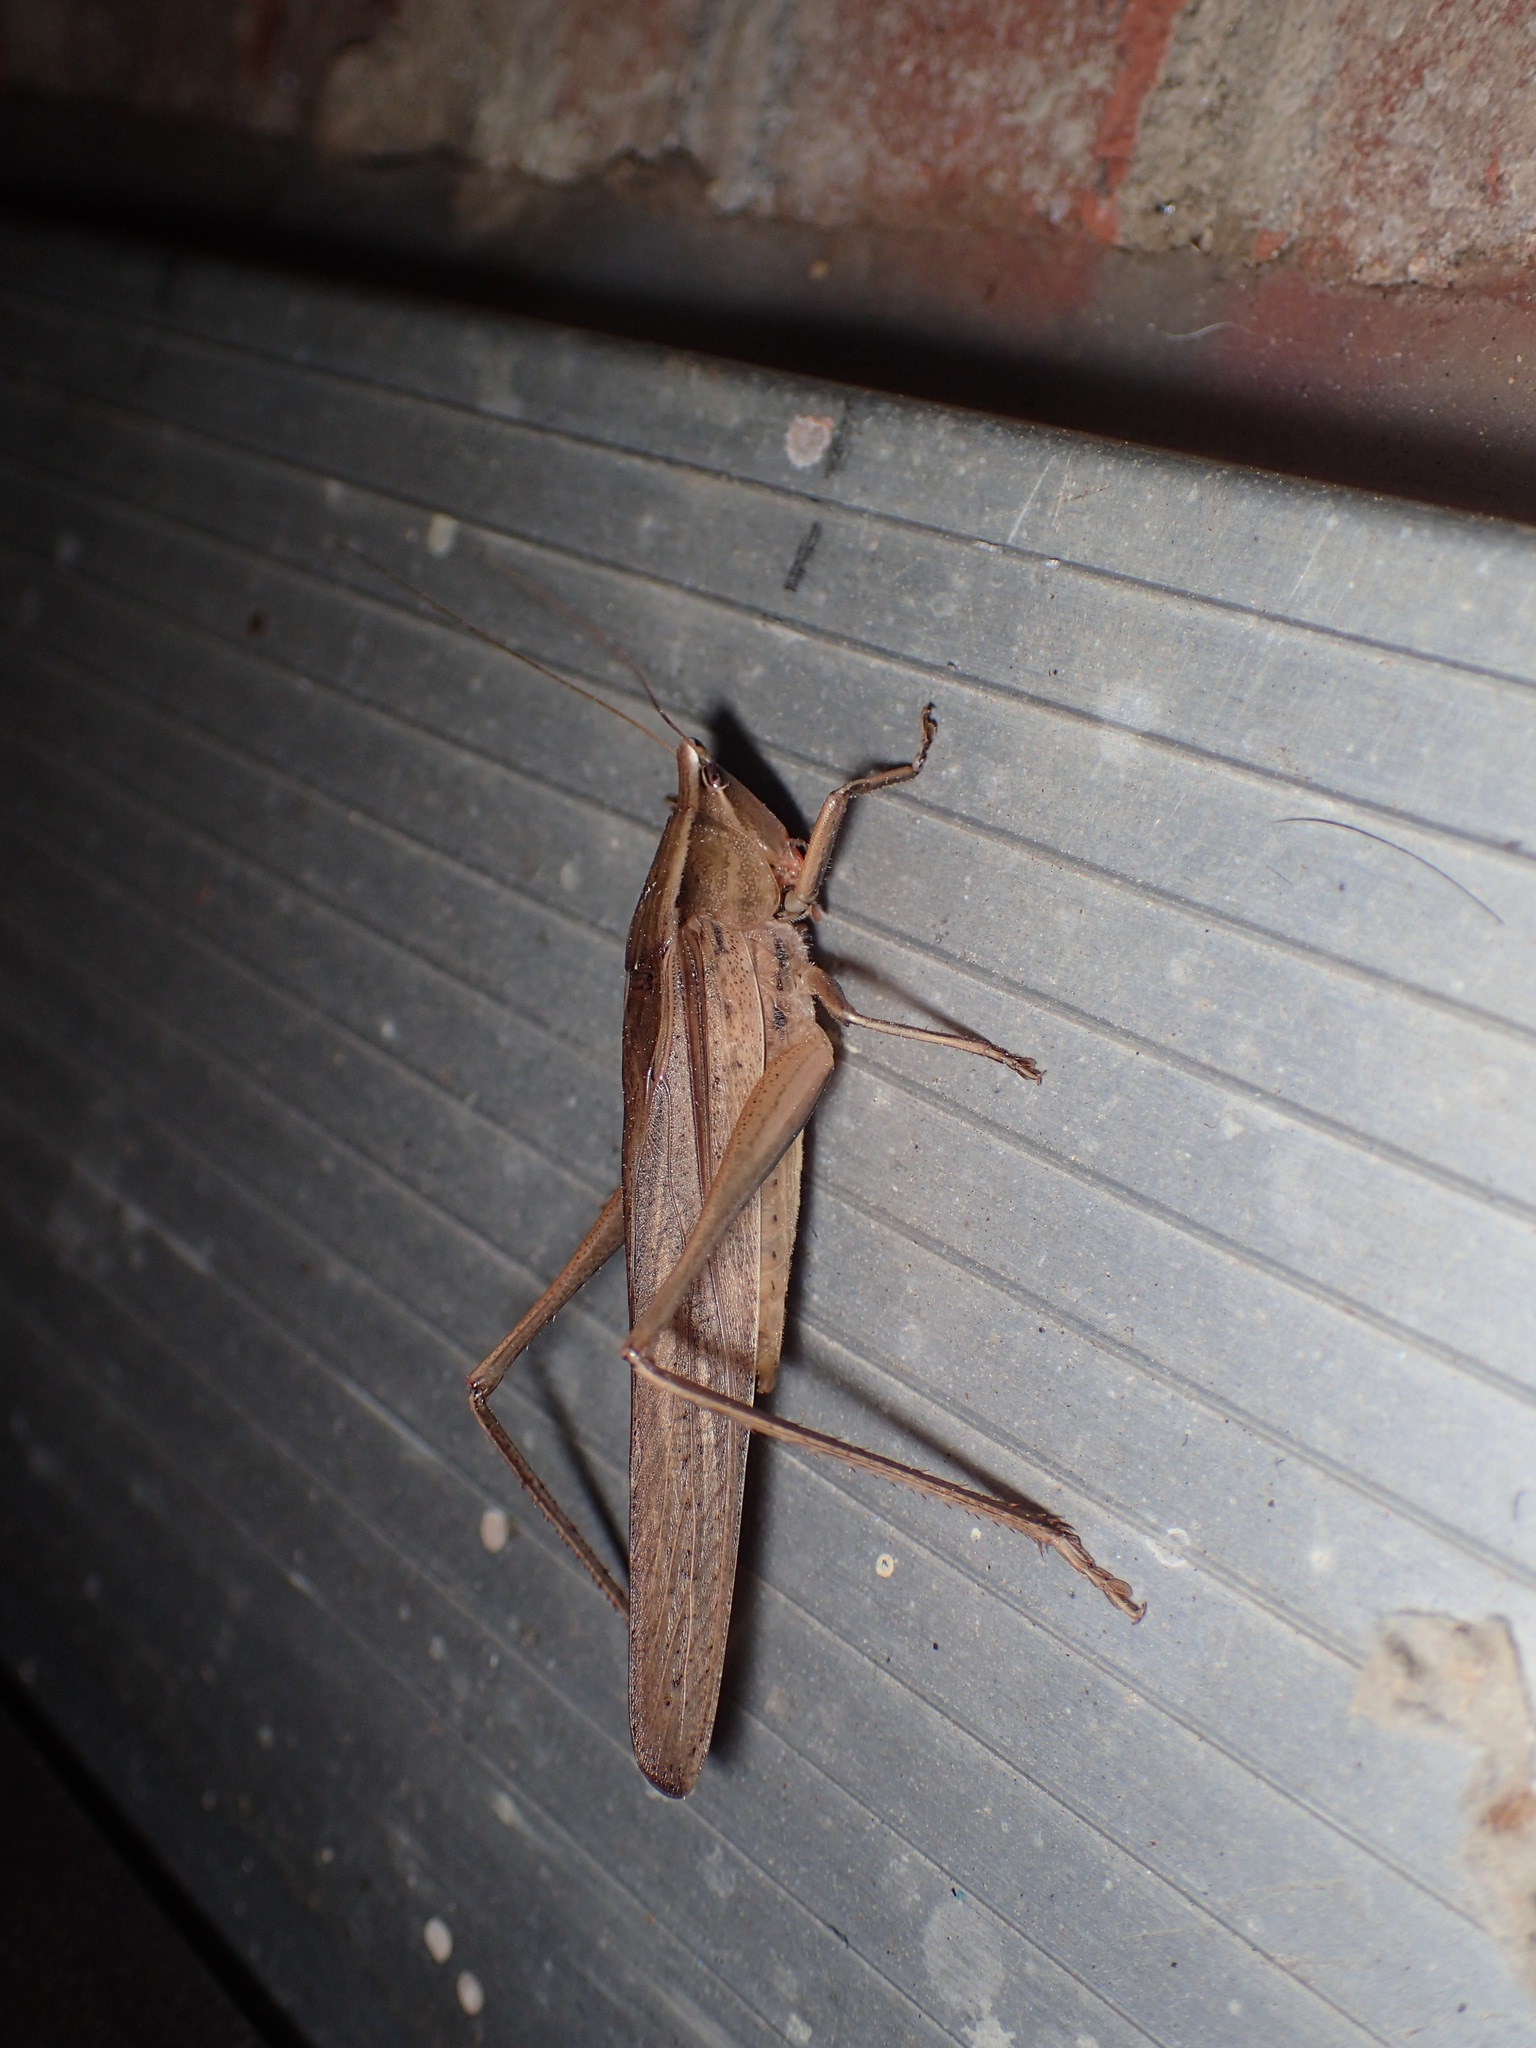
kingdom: Animalia
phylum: Arthropoda
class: Insecta
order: Orthoptera
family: Tettigoniidae
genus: Neoconocephalus
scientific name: Neoconocephalus triops
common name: Broad-tipped conehead
